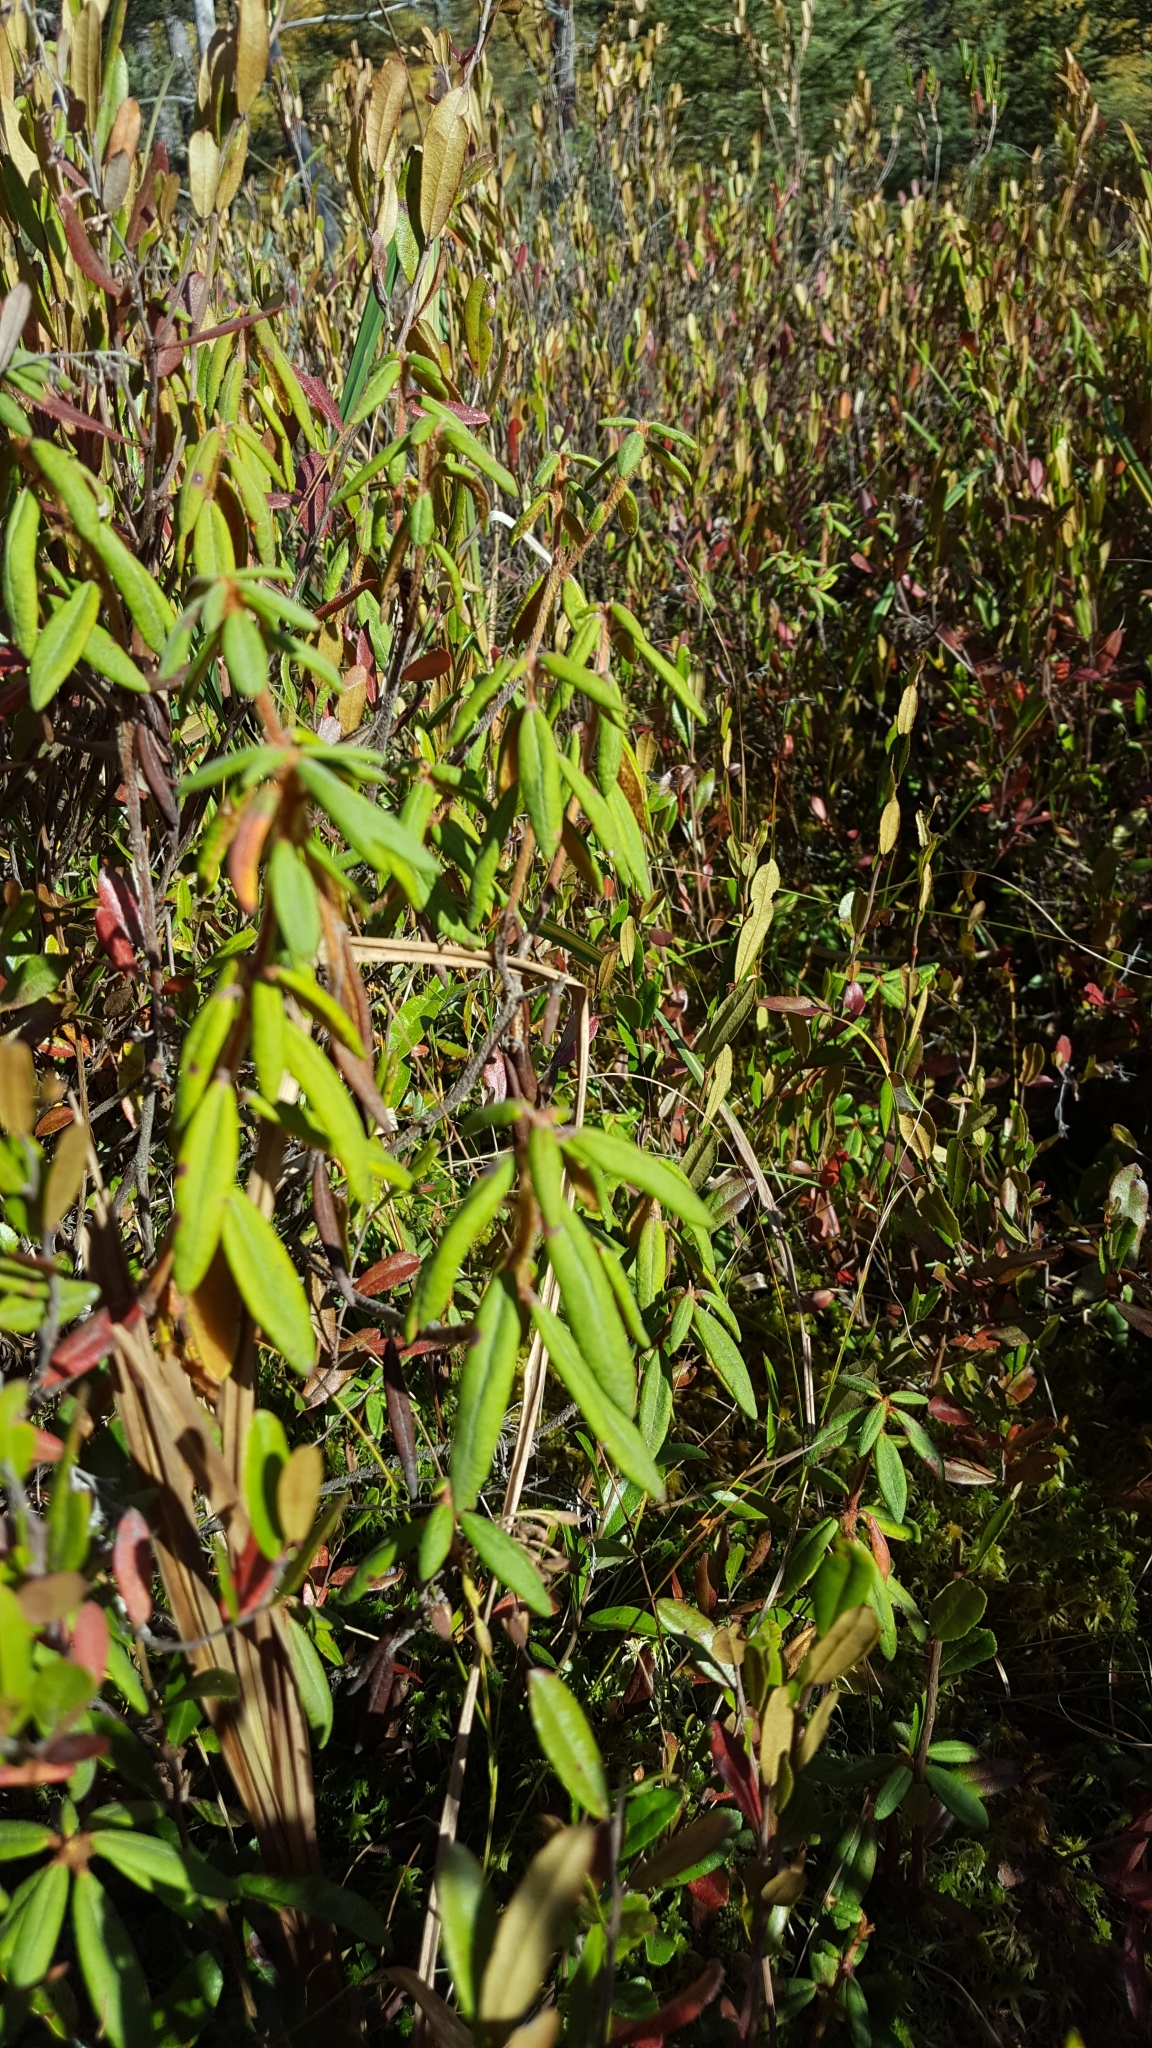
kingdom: Plantae
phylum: Tracheophyta
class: Magnoliopsida
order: Ericales
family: Ericaceae
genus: Rhododendron
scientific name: Rhododendron groenlandicum
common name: Bog labrador tea
